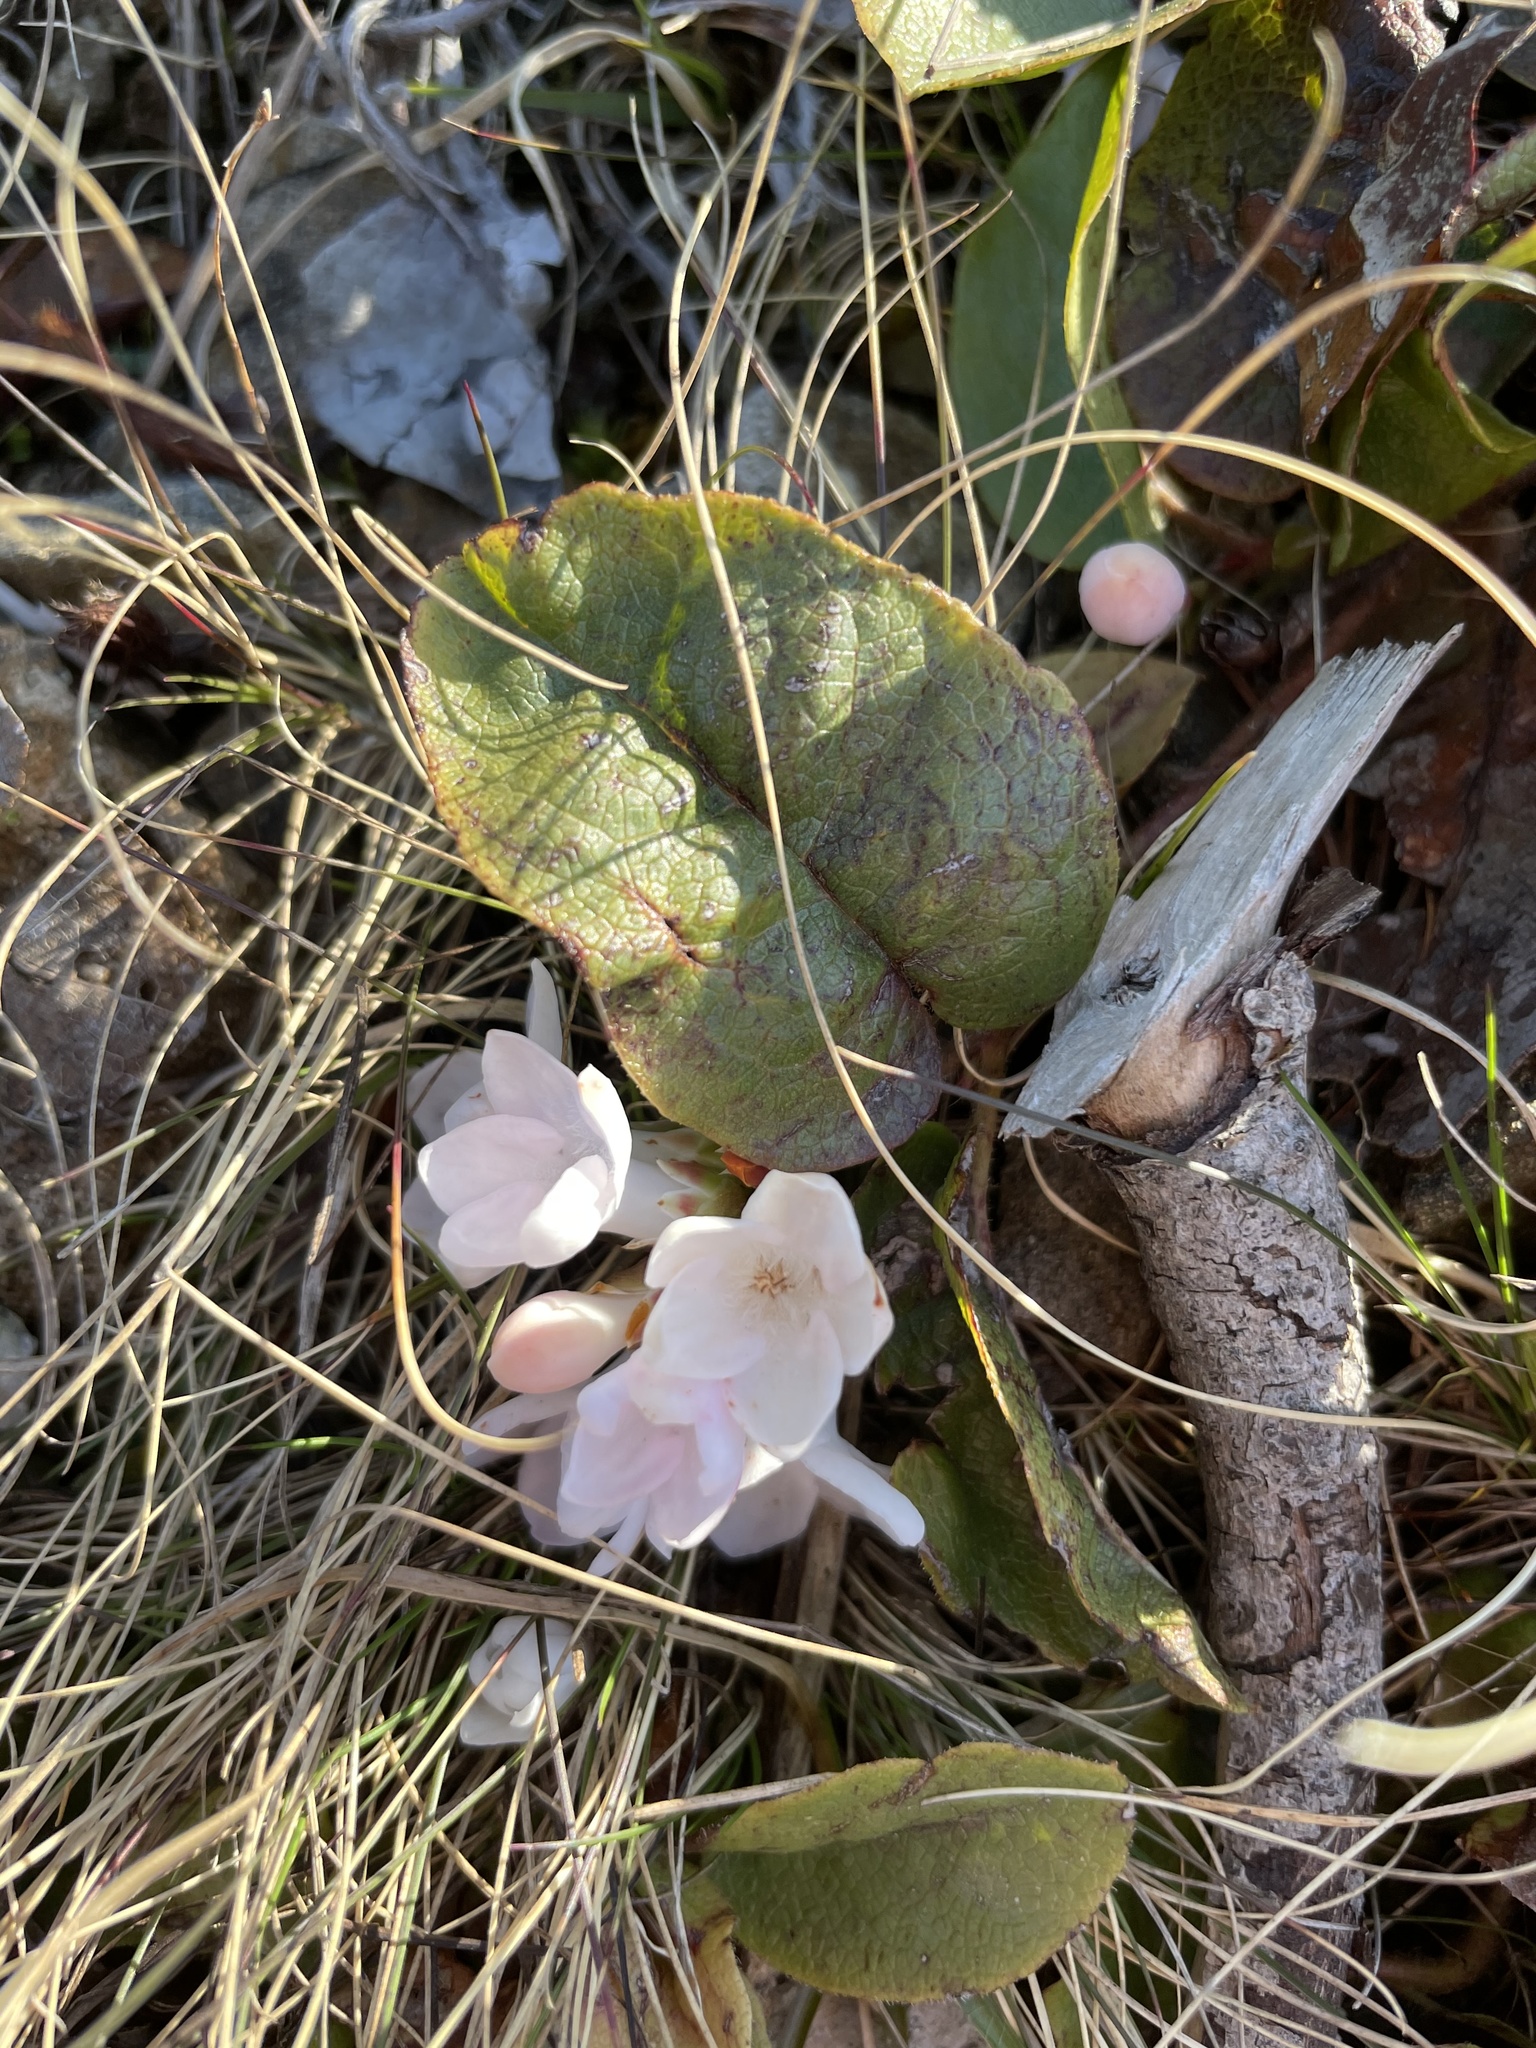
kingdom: Plantae
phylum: Tracheophyta
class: Magnoliopsida
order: Ericales
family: Ericaceae
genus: Epigaea
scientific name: Epigaea repens
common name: Gravelroot
